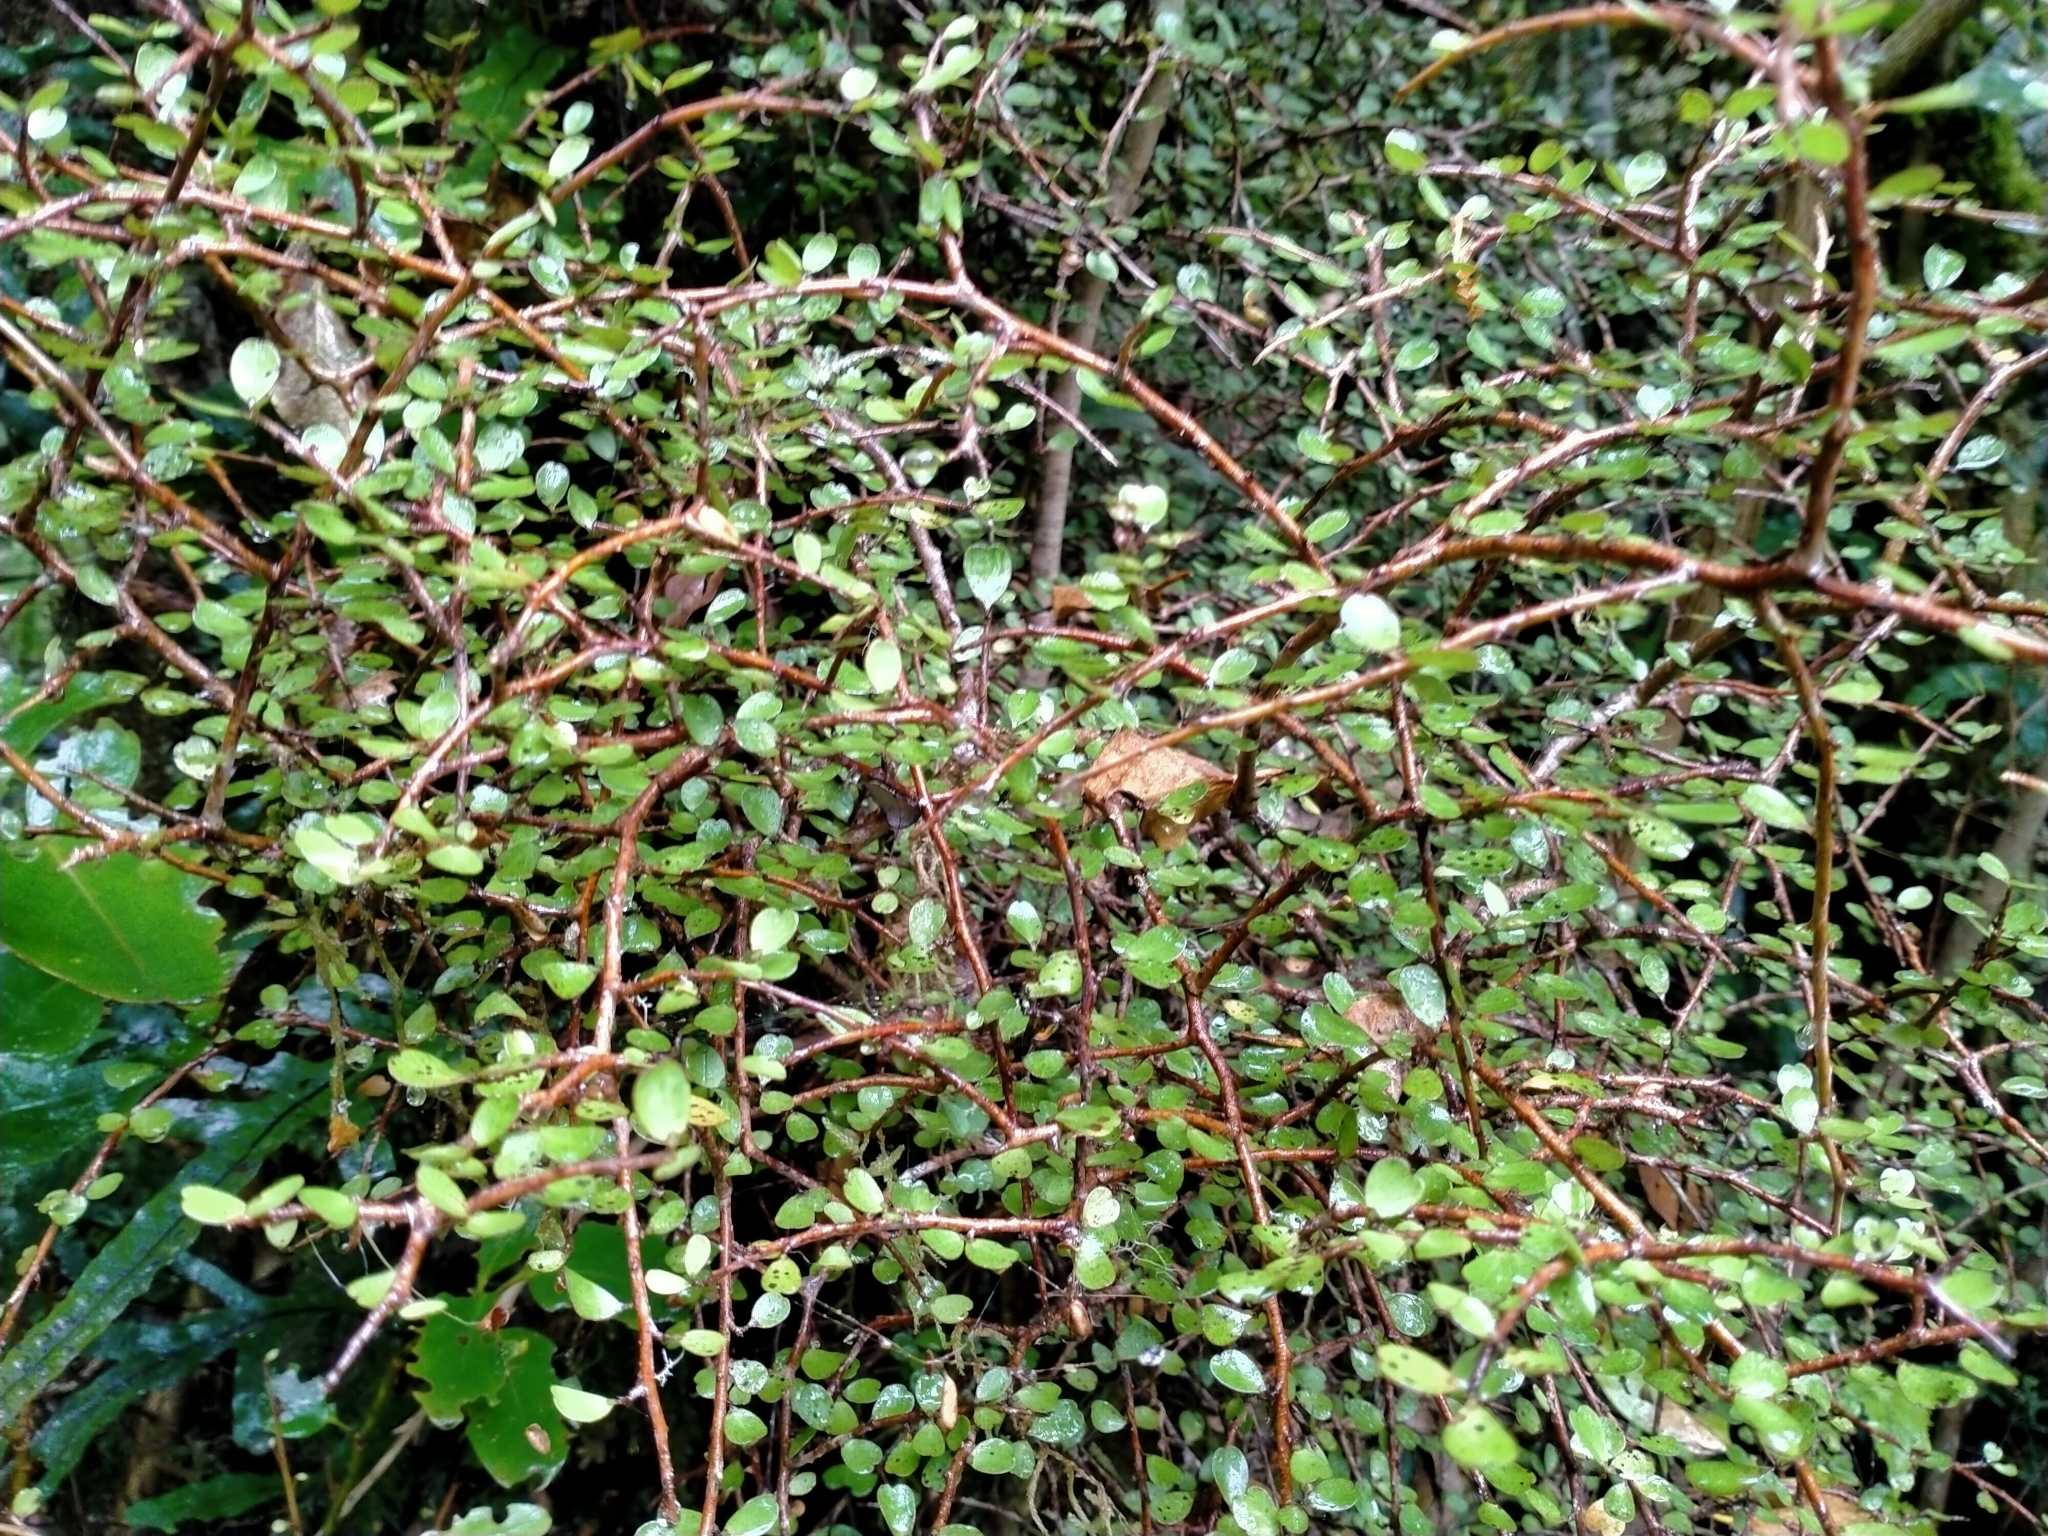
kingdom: Plantae
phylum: Tracheophyta
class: Magnoliopsida
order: Ericales
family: Primulaceae
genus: Myrsine
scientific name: Myrsine divaricata
